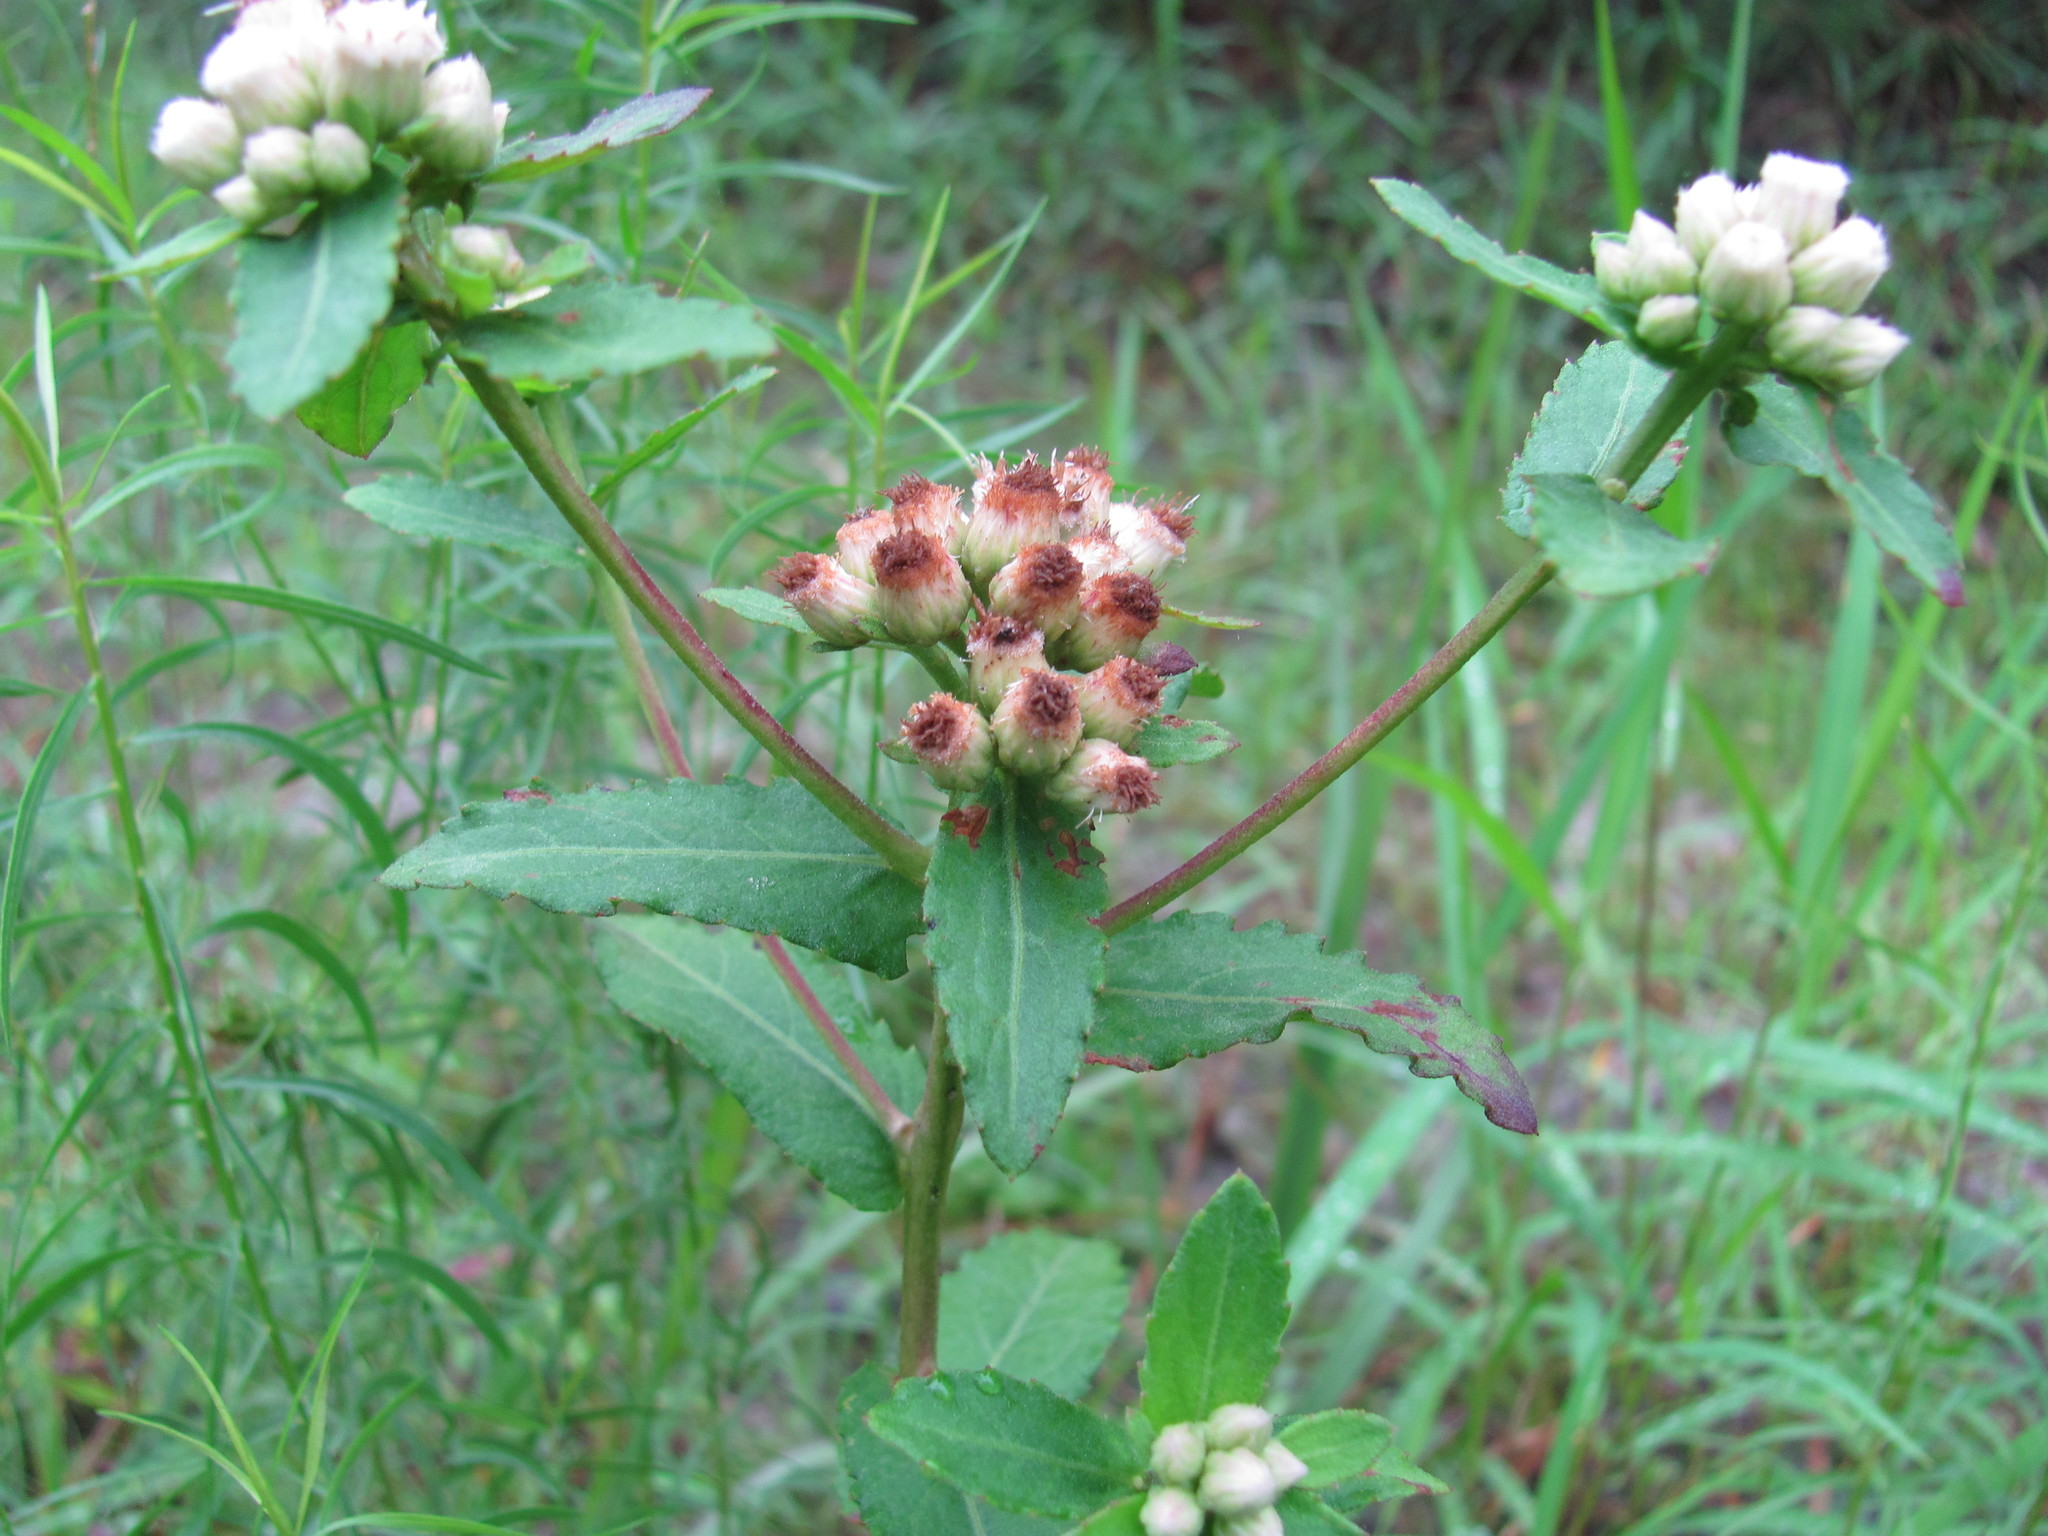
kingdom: Plantae
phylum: Tracheophyta
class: Magnoliopsida
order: Asterales
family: Asteraceae
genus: Pluchea
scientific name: Pluchea foetida
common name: Stinking camphorweed
